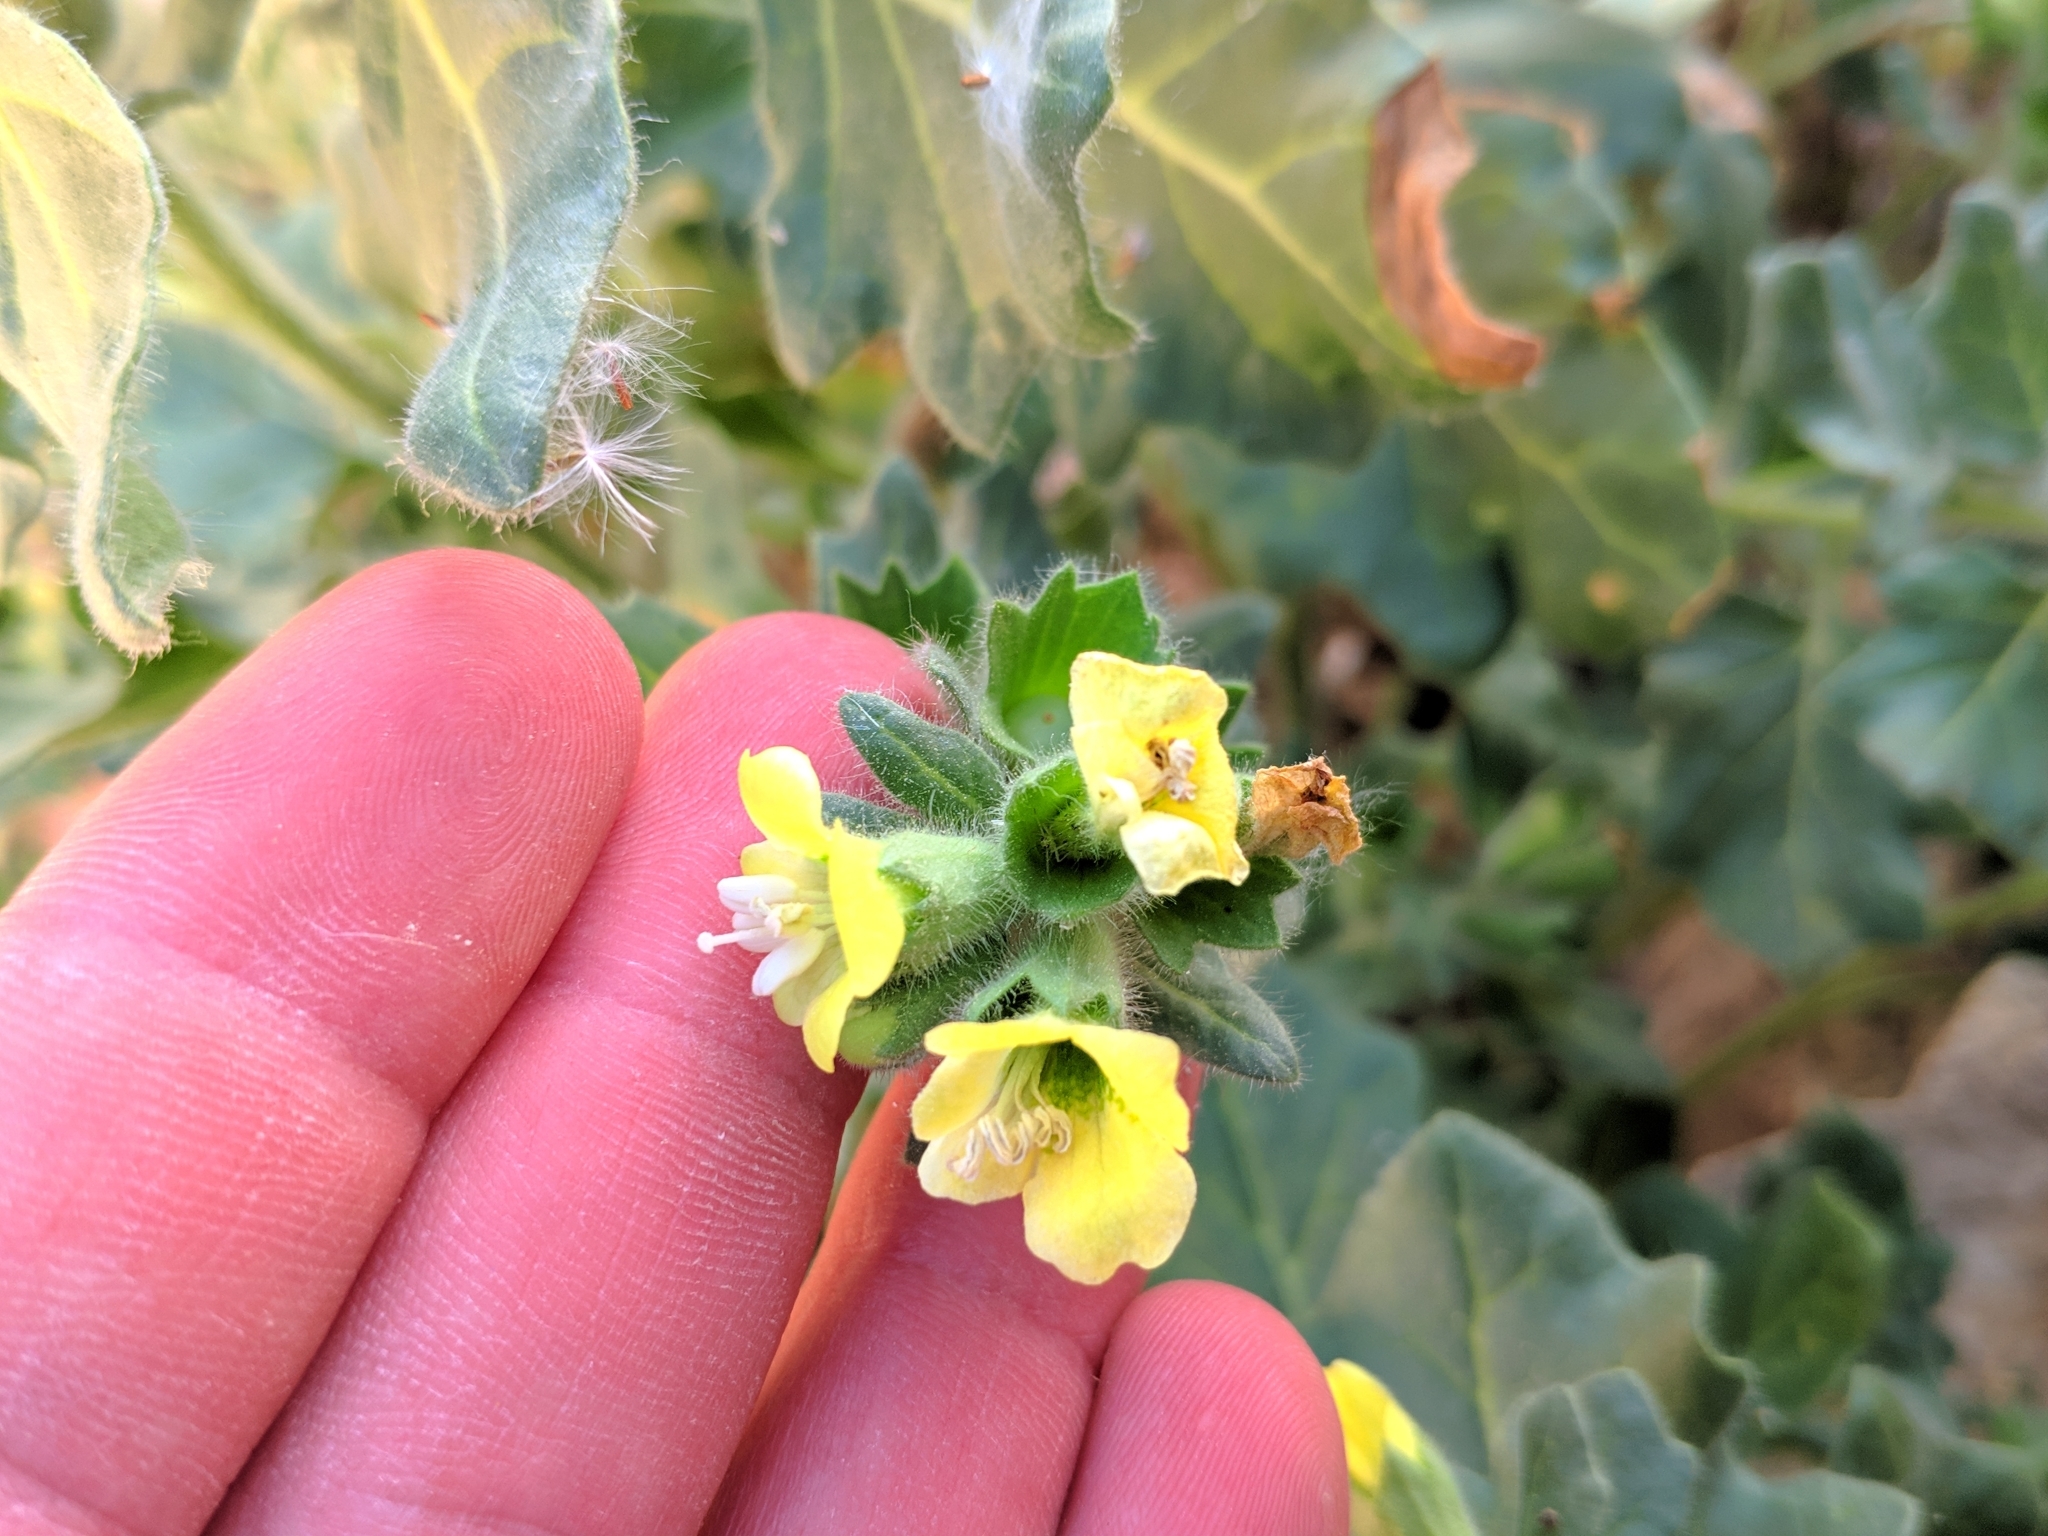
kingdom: Plantae
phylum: Tracheophyta
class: Magnoliopsida
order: Solanales
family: Solanaceae
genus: Hyoscyamus
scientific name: Hyoscyamus albus
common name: White henbane
